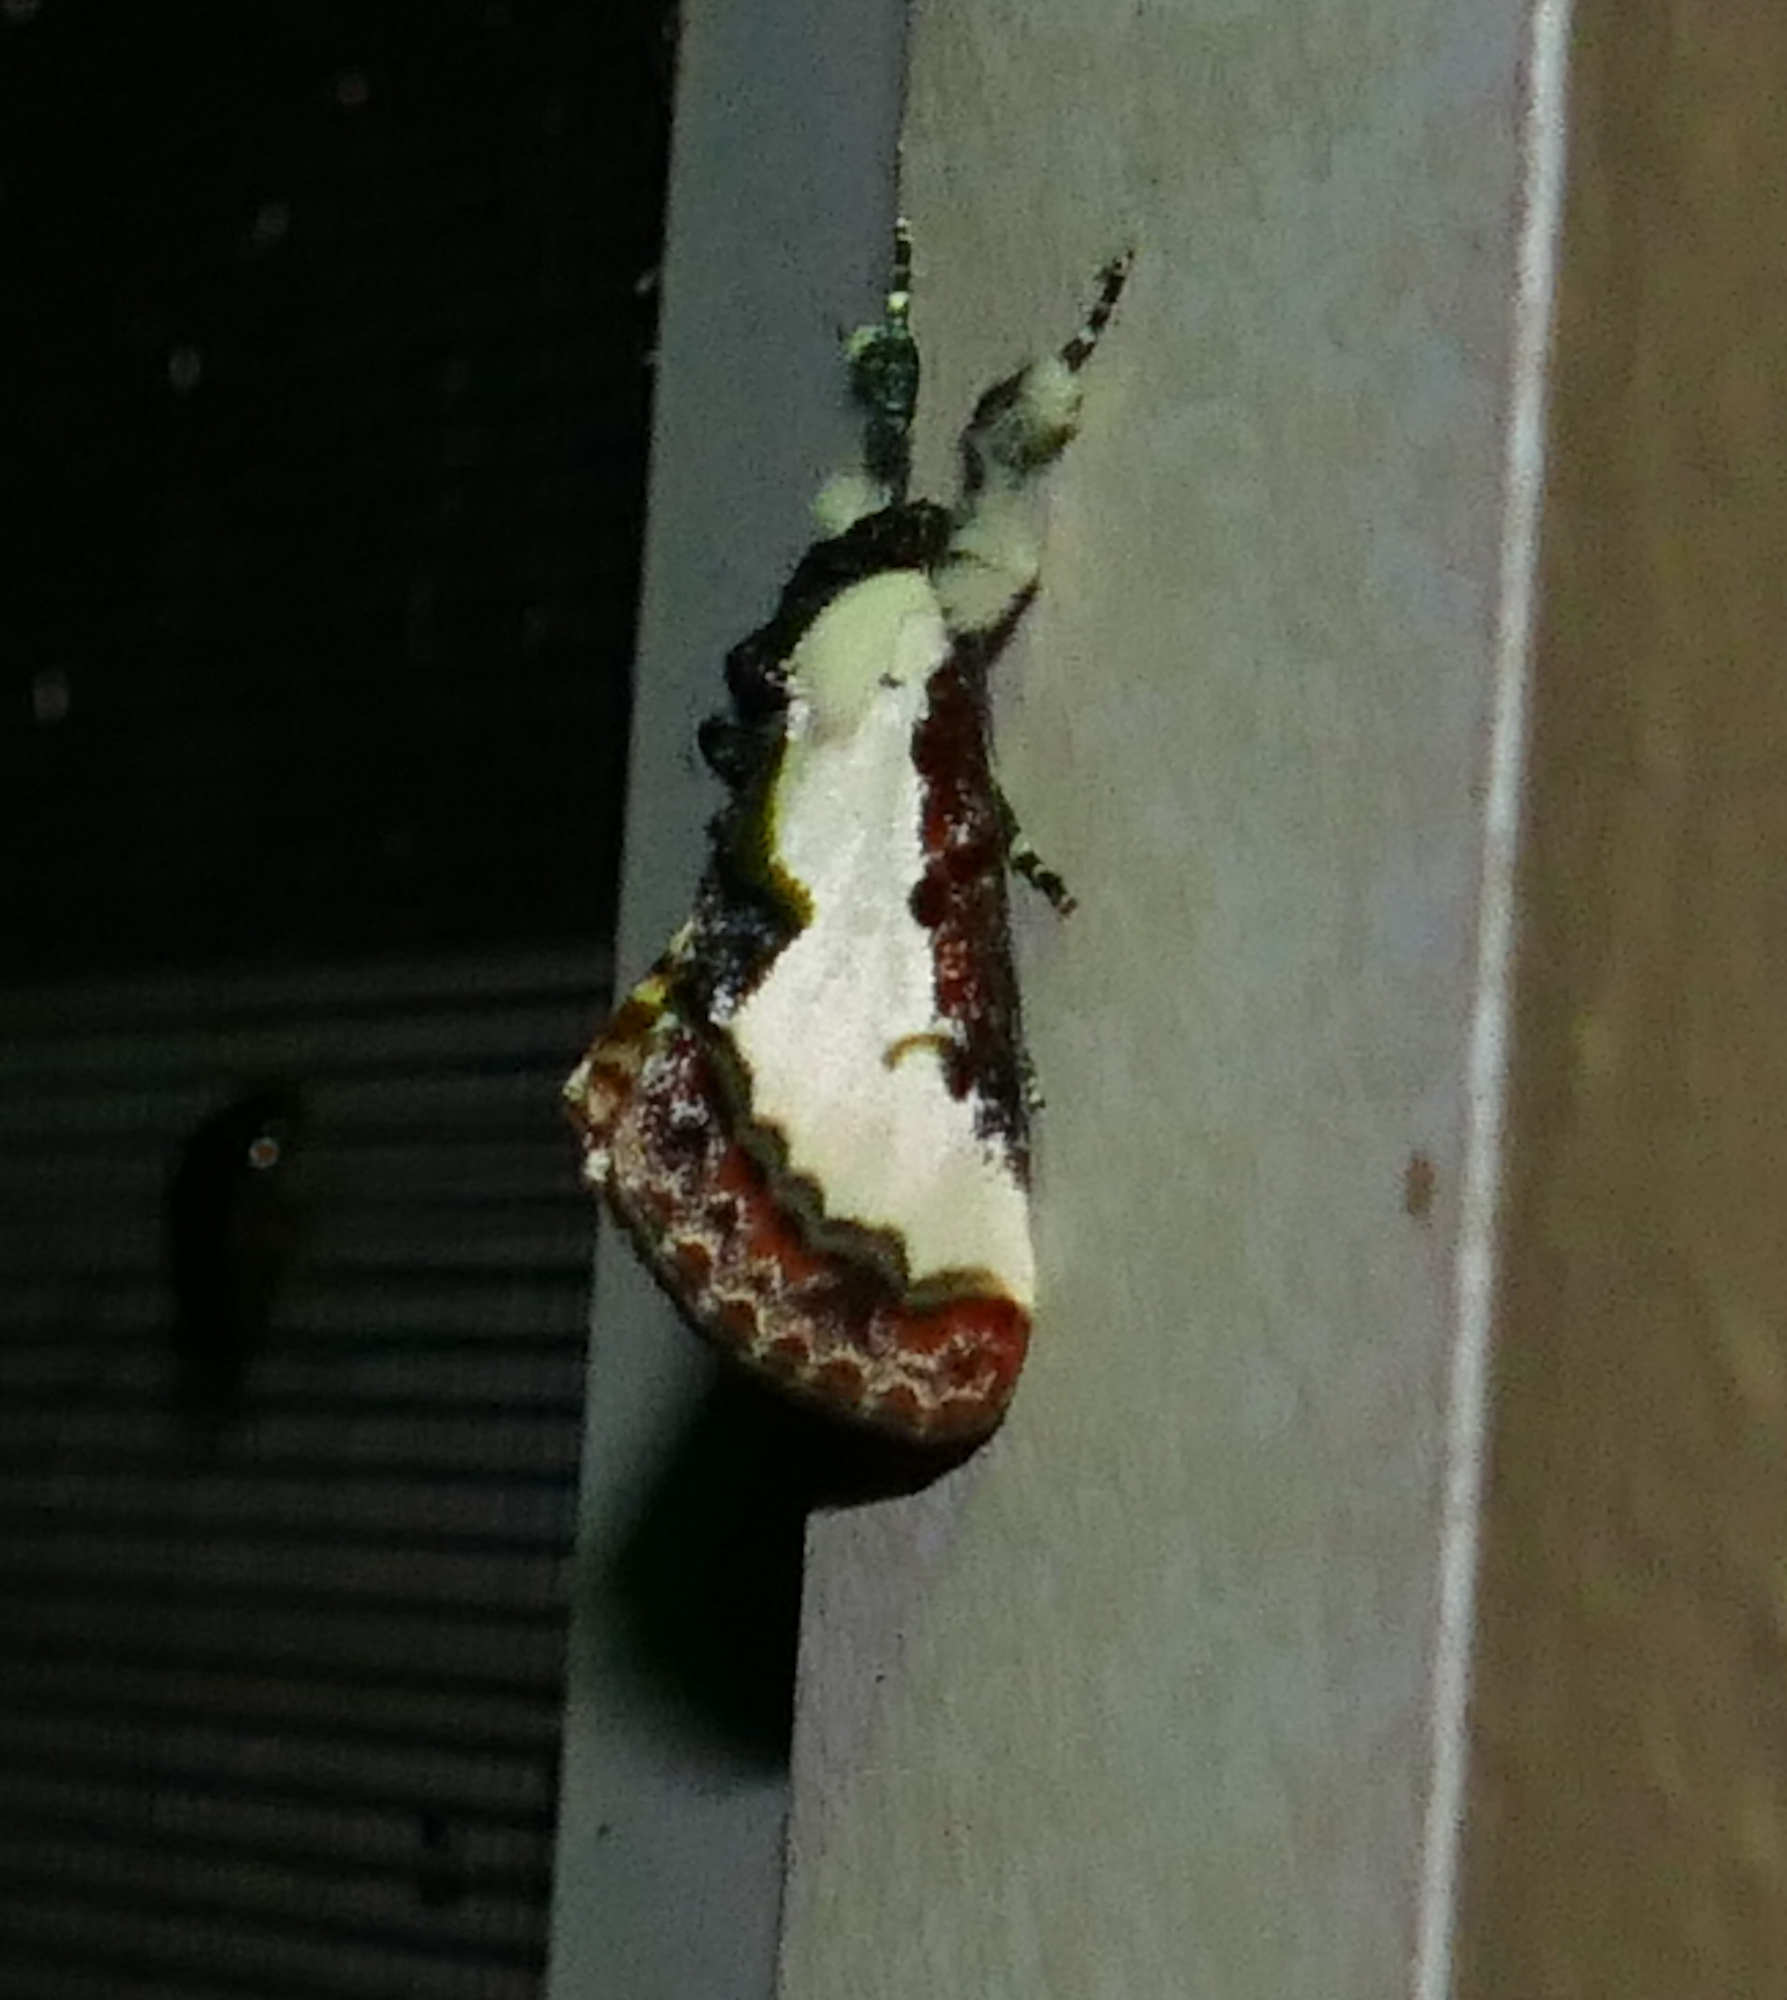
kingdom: Animalia
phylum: Arthropoda
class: Insecta
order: Lepidoptera
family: Noctuidae
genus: Eudryas
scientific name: Eudryas unio
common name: Pearly wood-nymph
